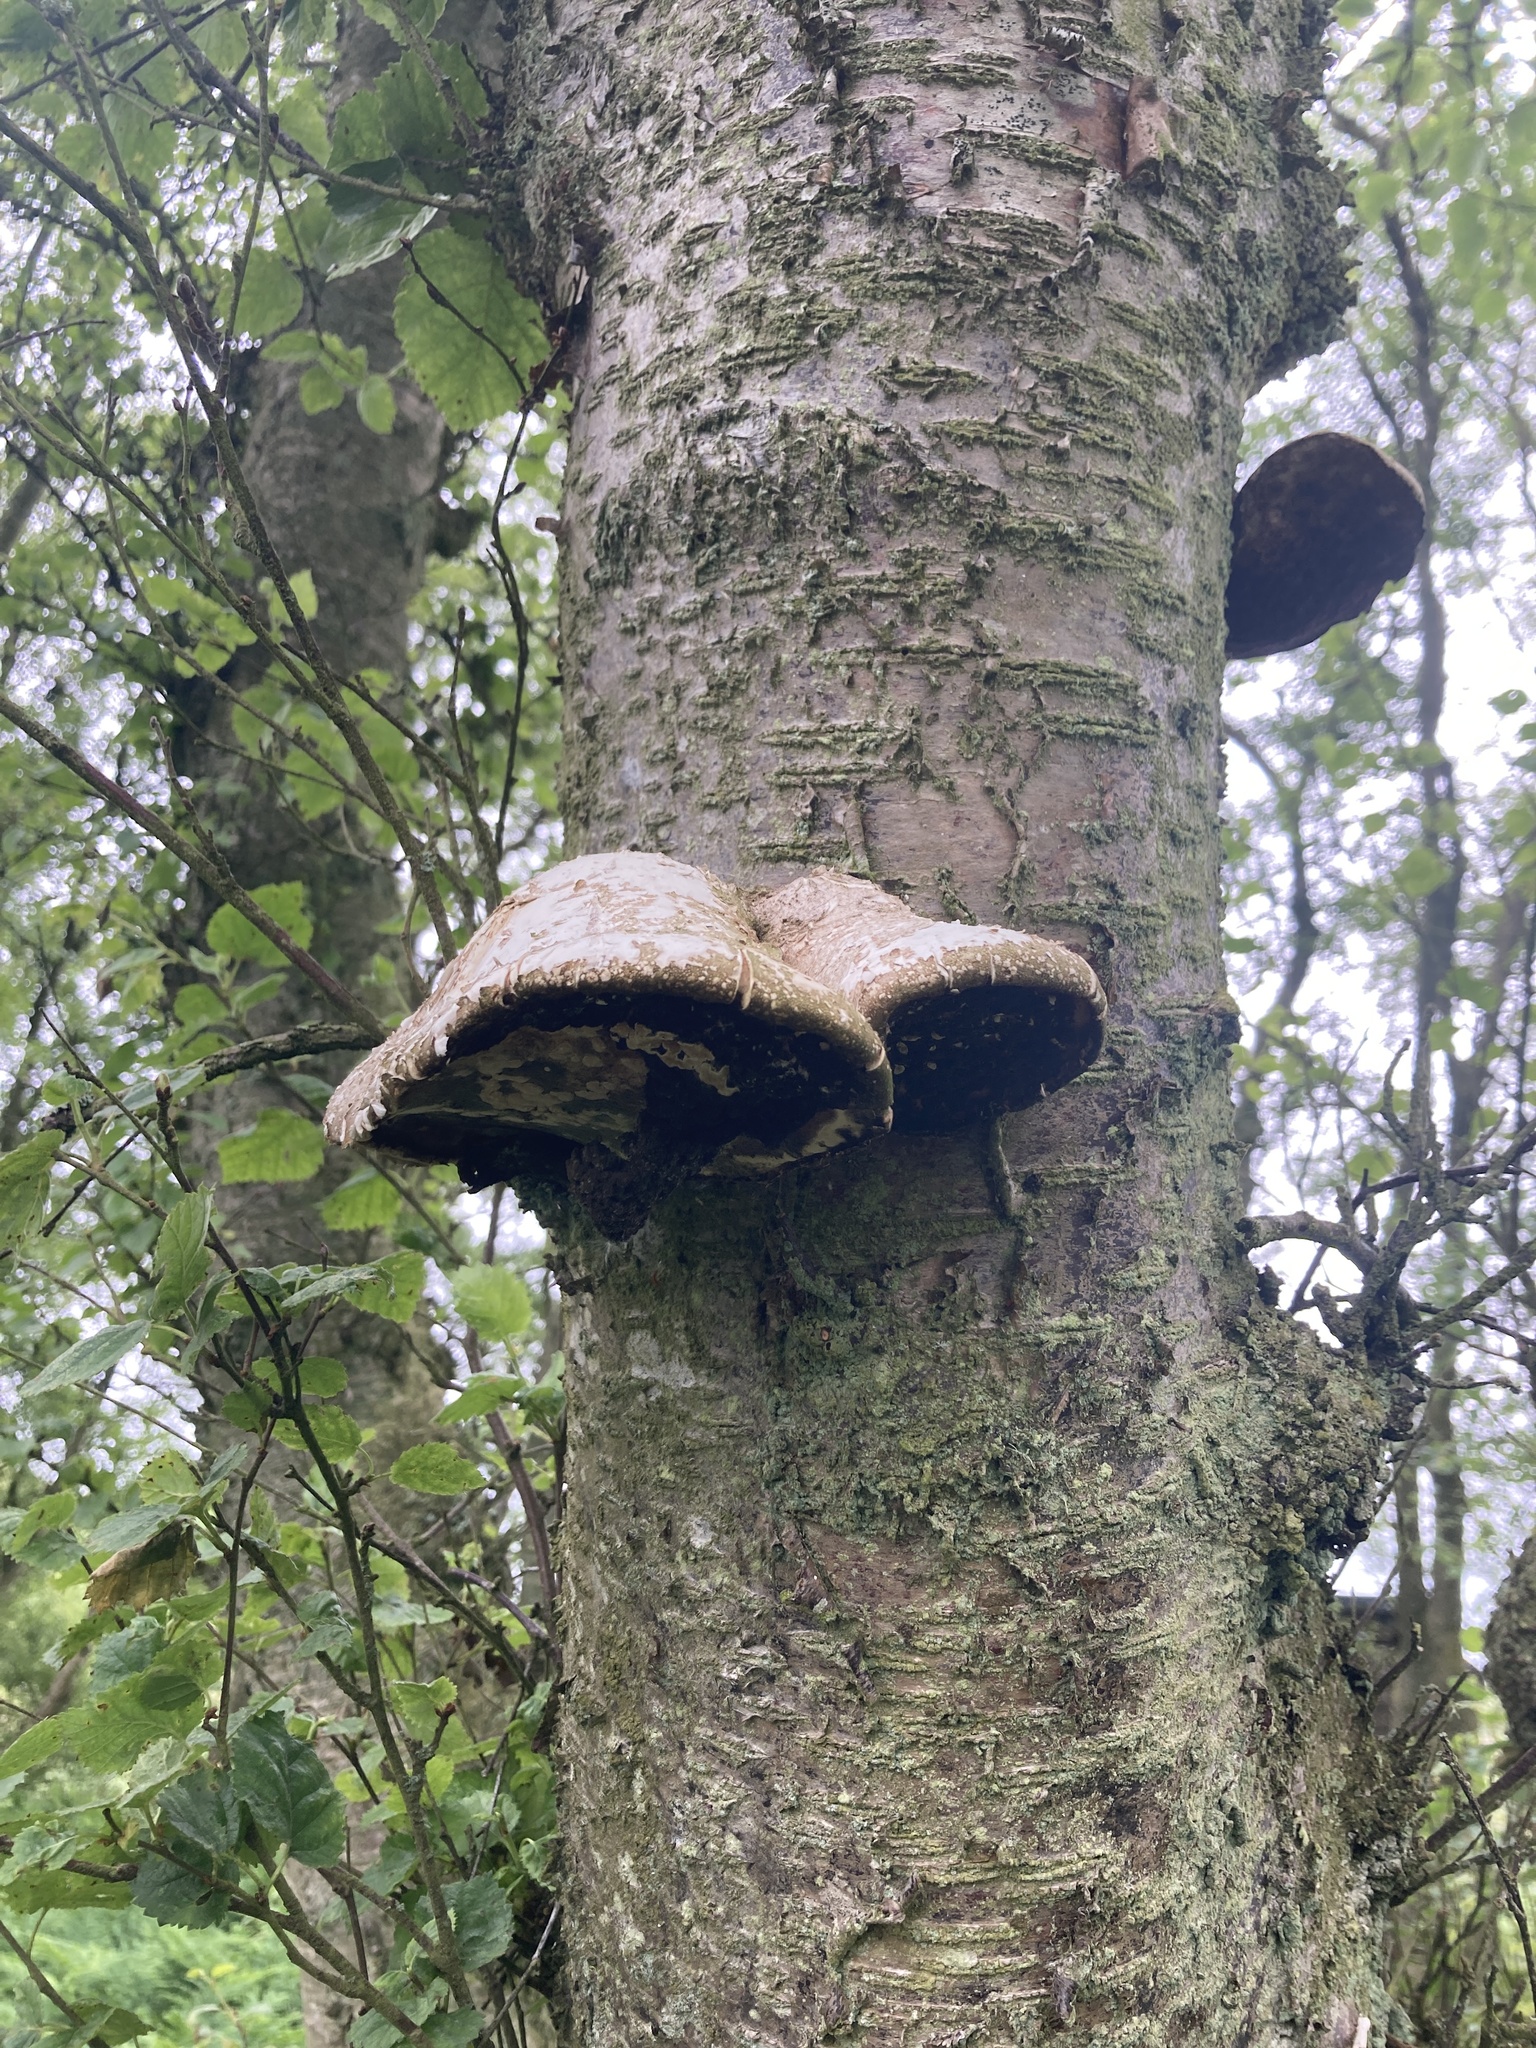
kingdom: Fungi
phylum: Basidiomycota
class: Agaricomycetes
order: Polyporales
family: Fomitopsidaceae
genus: Fomitopsis
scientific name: Fomitopsis betulina
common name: Birch polypore
